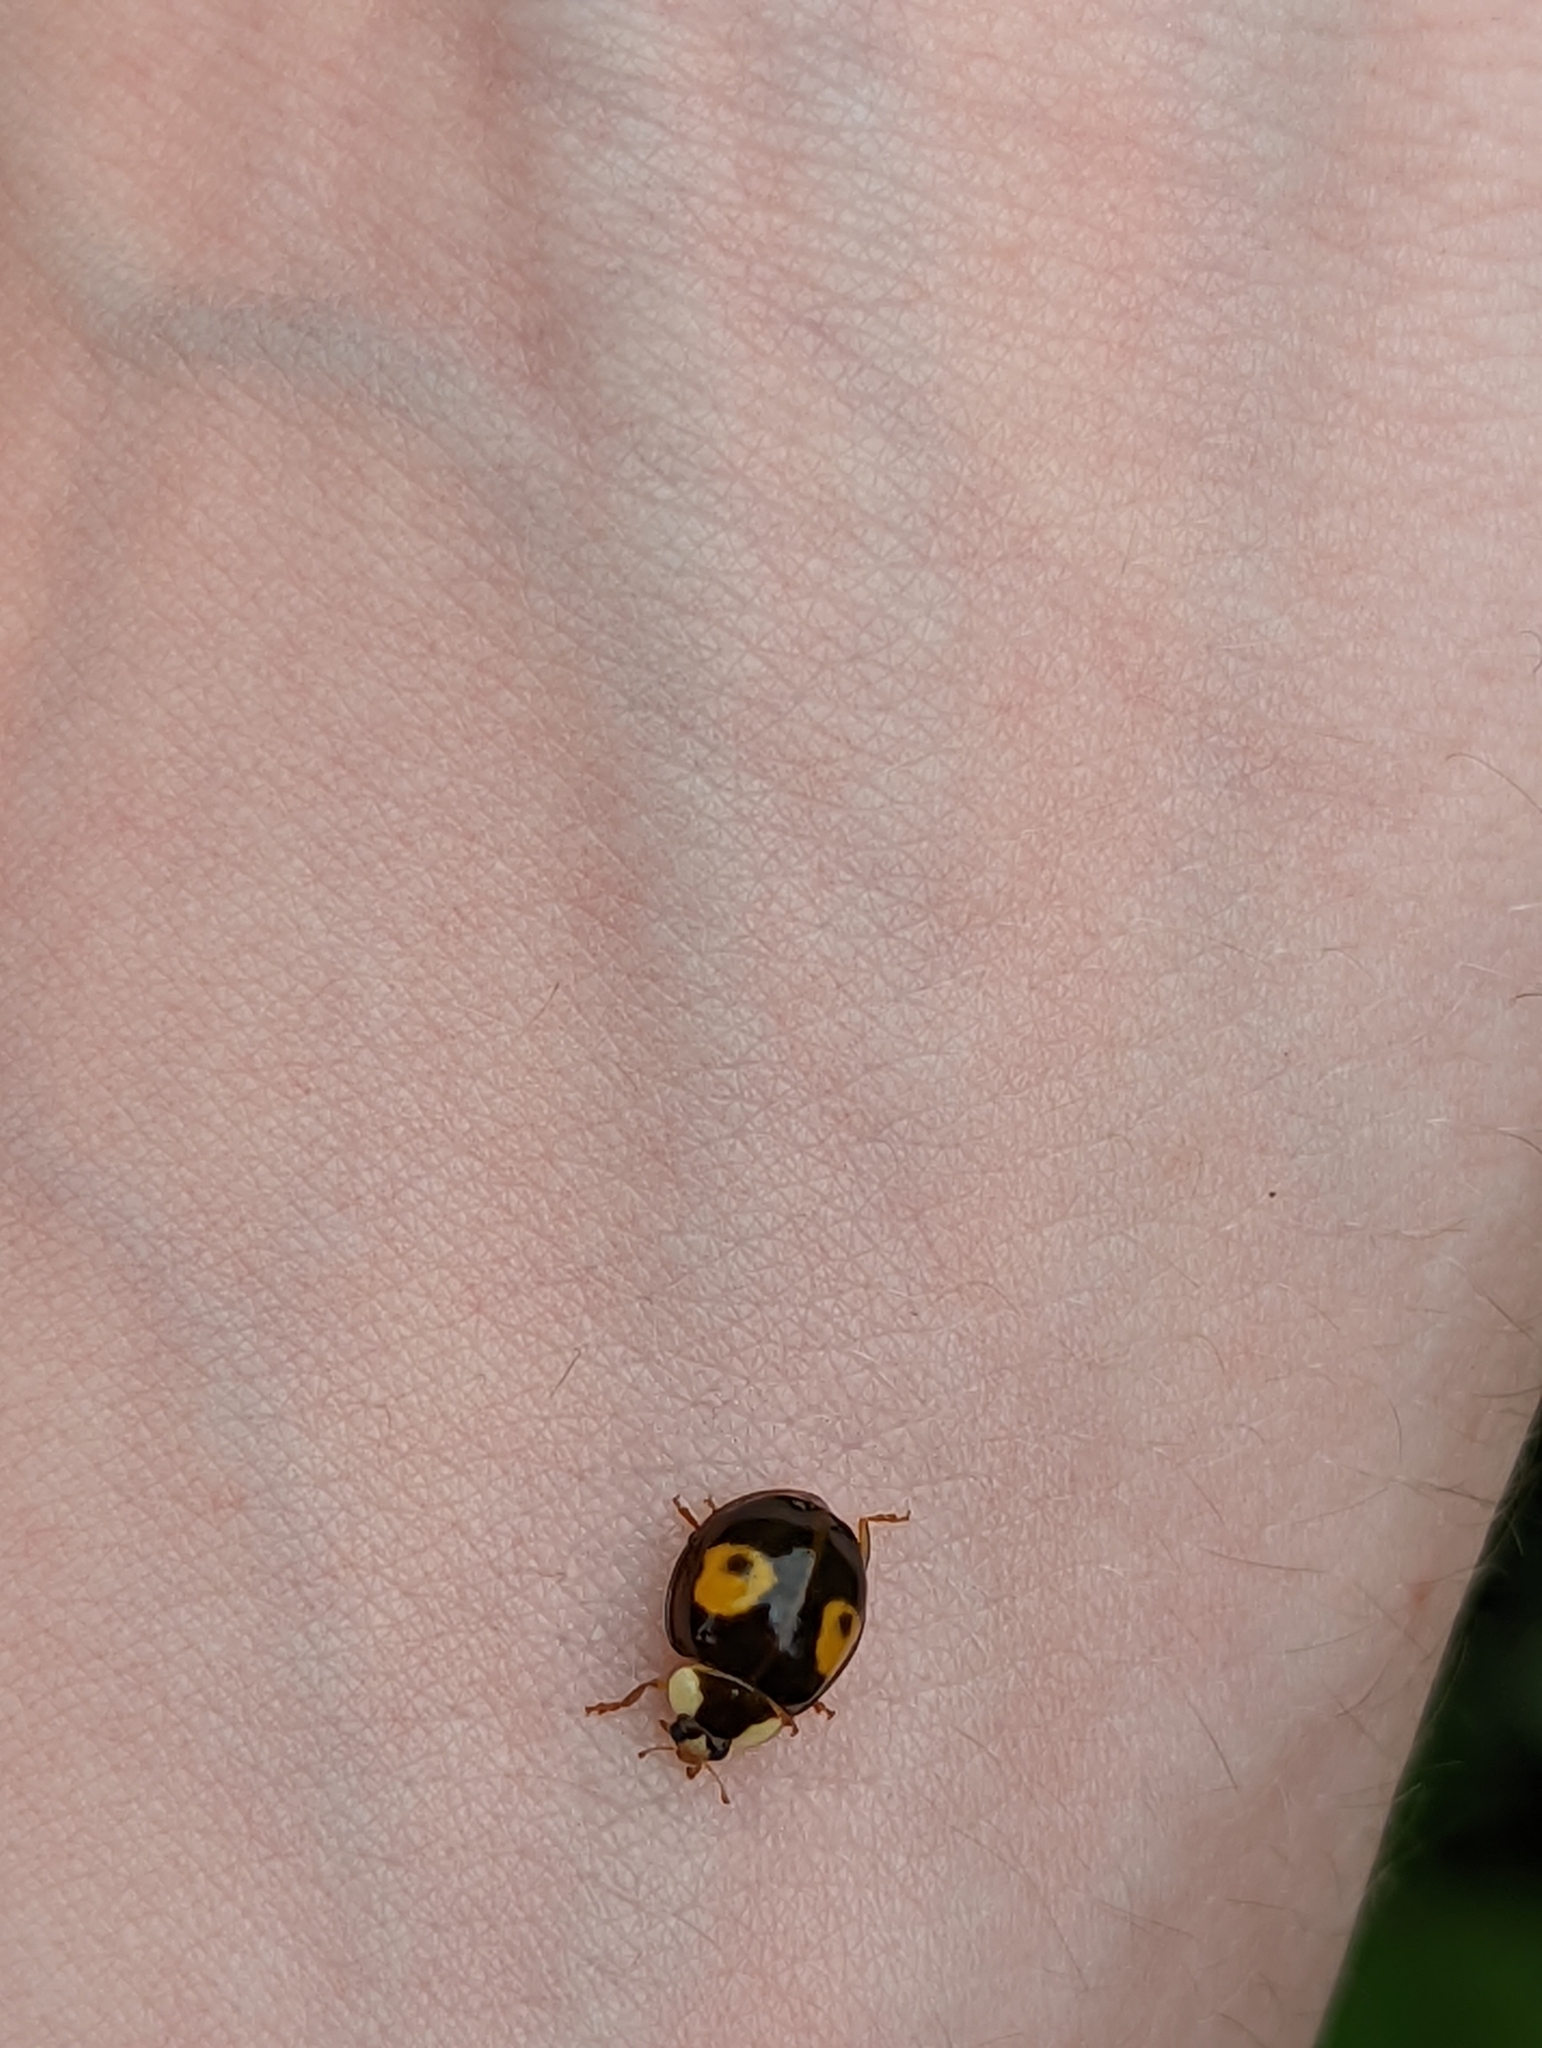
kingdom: Animalia
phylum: Arthropoda
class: Insecta
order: Coleoptera
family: Coccinellidae
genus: Harmonia
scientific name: Harmonia axyridis
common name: Harlequin ladybird
